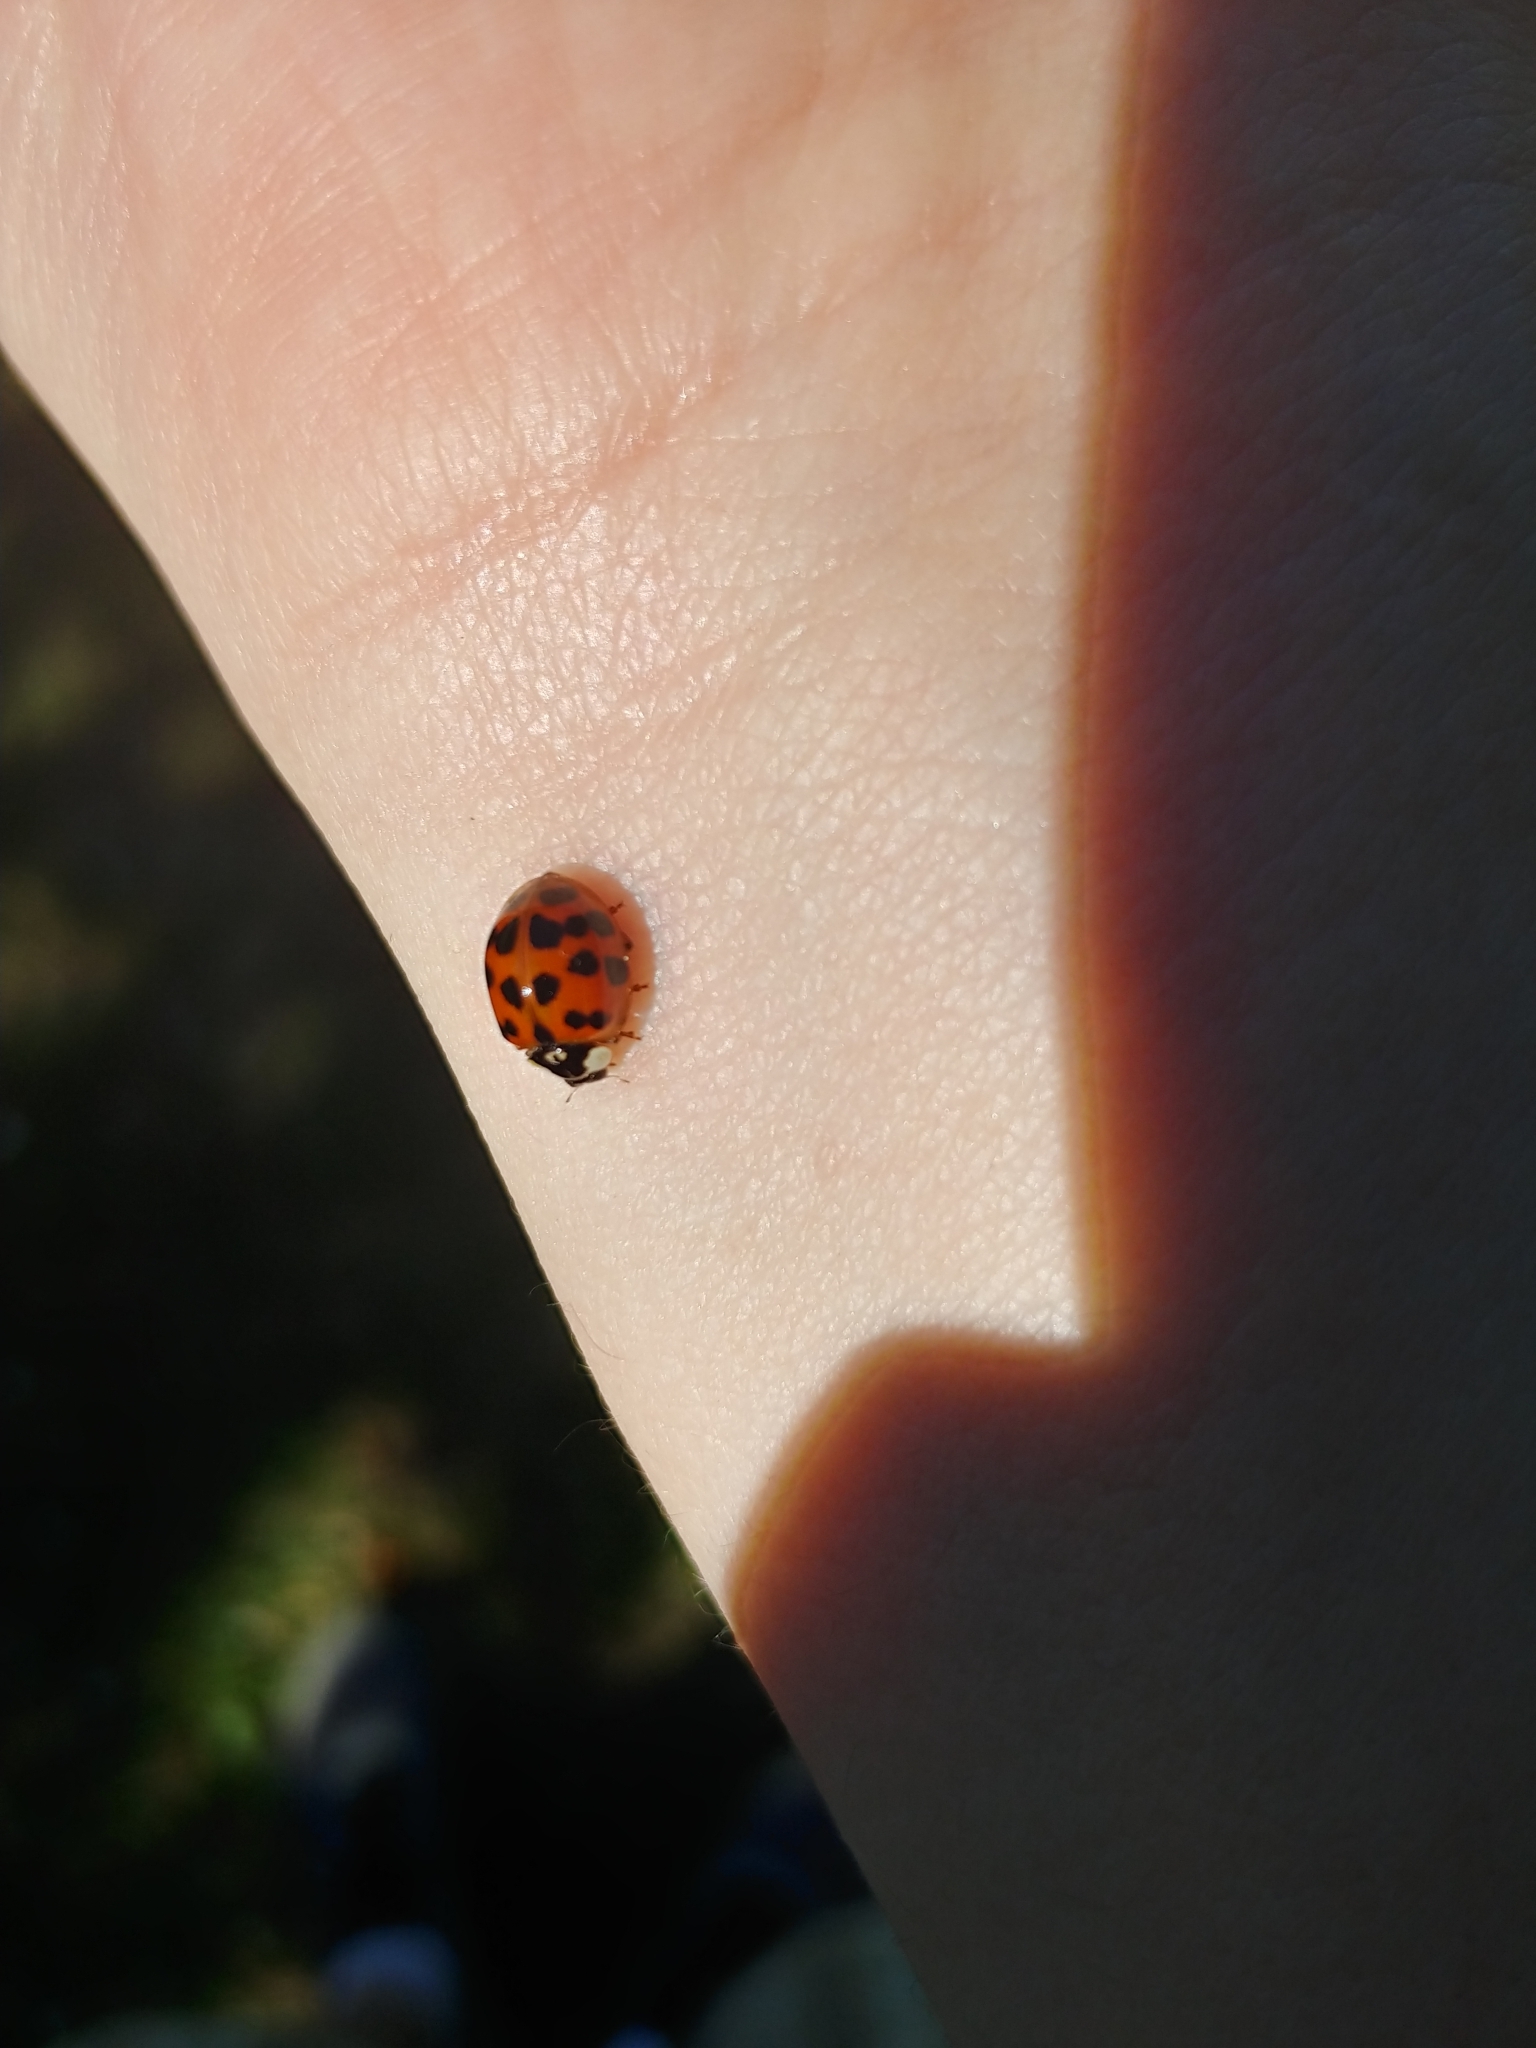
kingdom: Animalia
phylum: Arthropoda
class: Insecta
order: Coleoptera
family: Coccinellidae
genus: Harmonia
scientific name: Harmonia axyridis
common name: Harlequin ladybird
